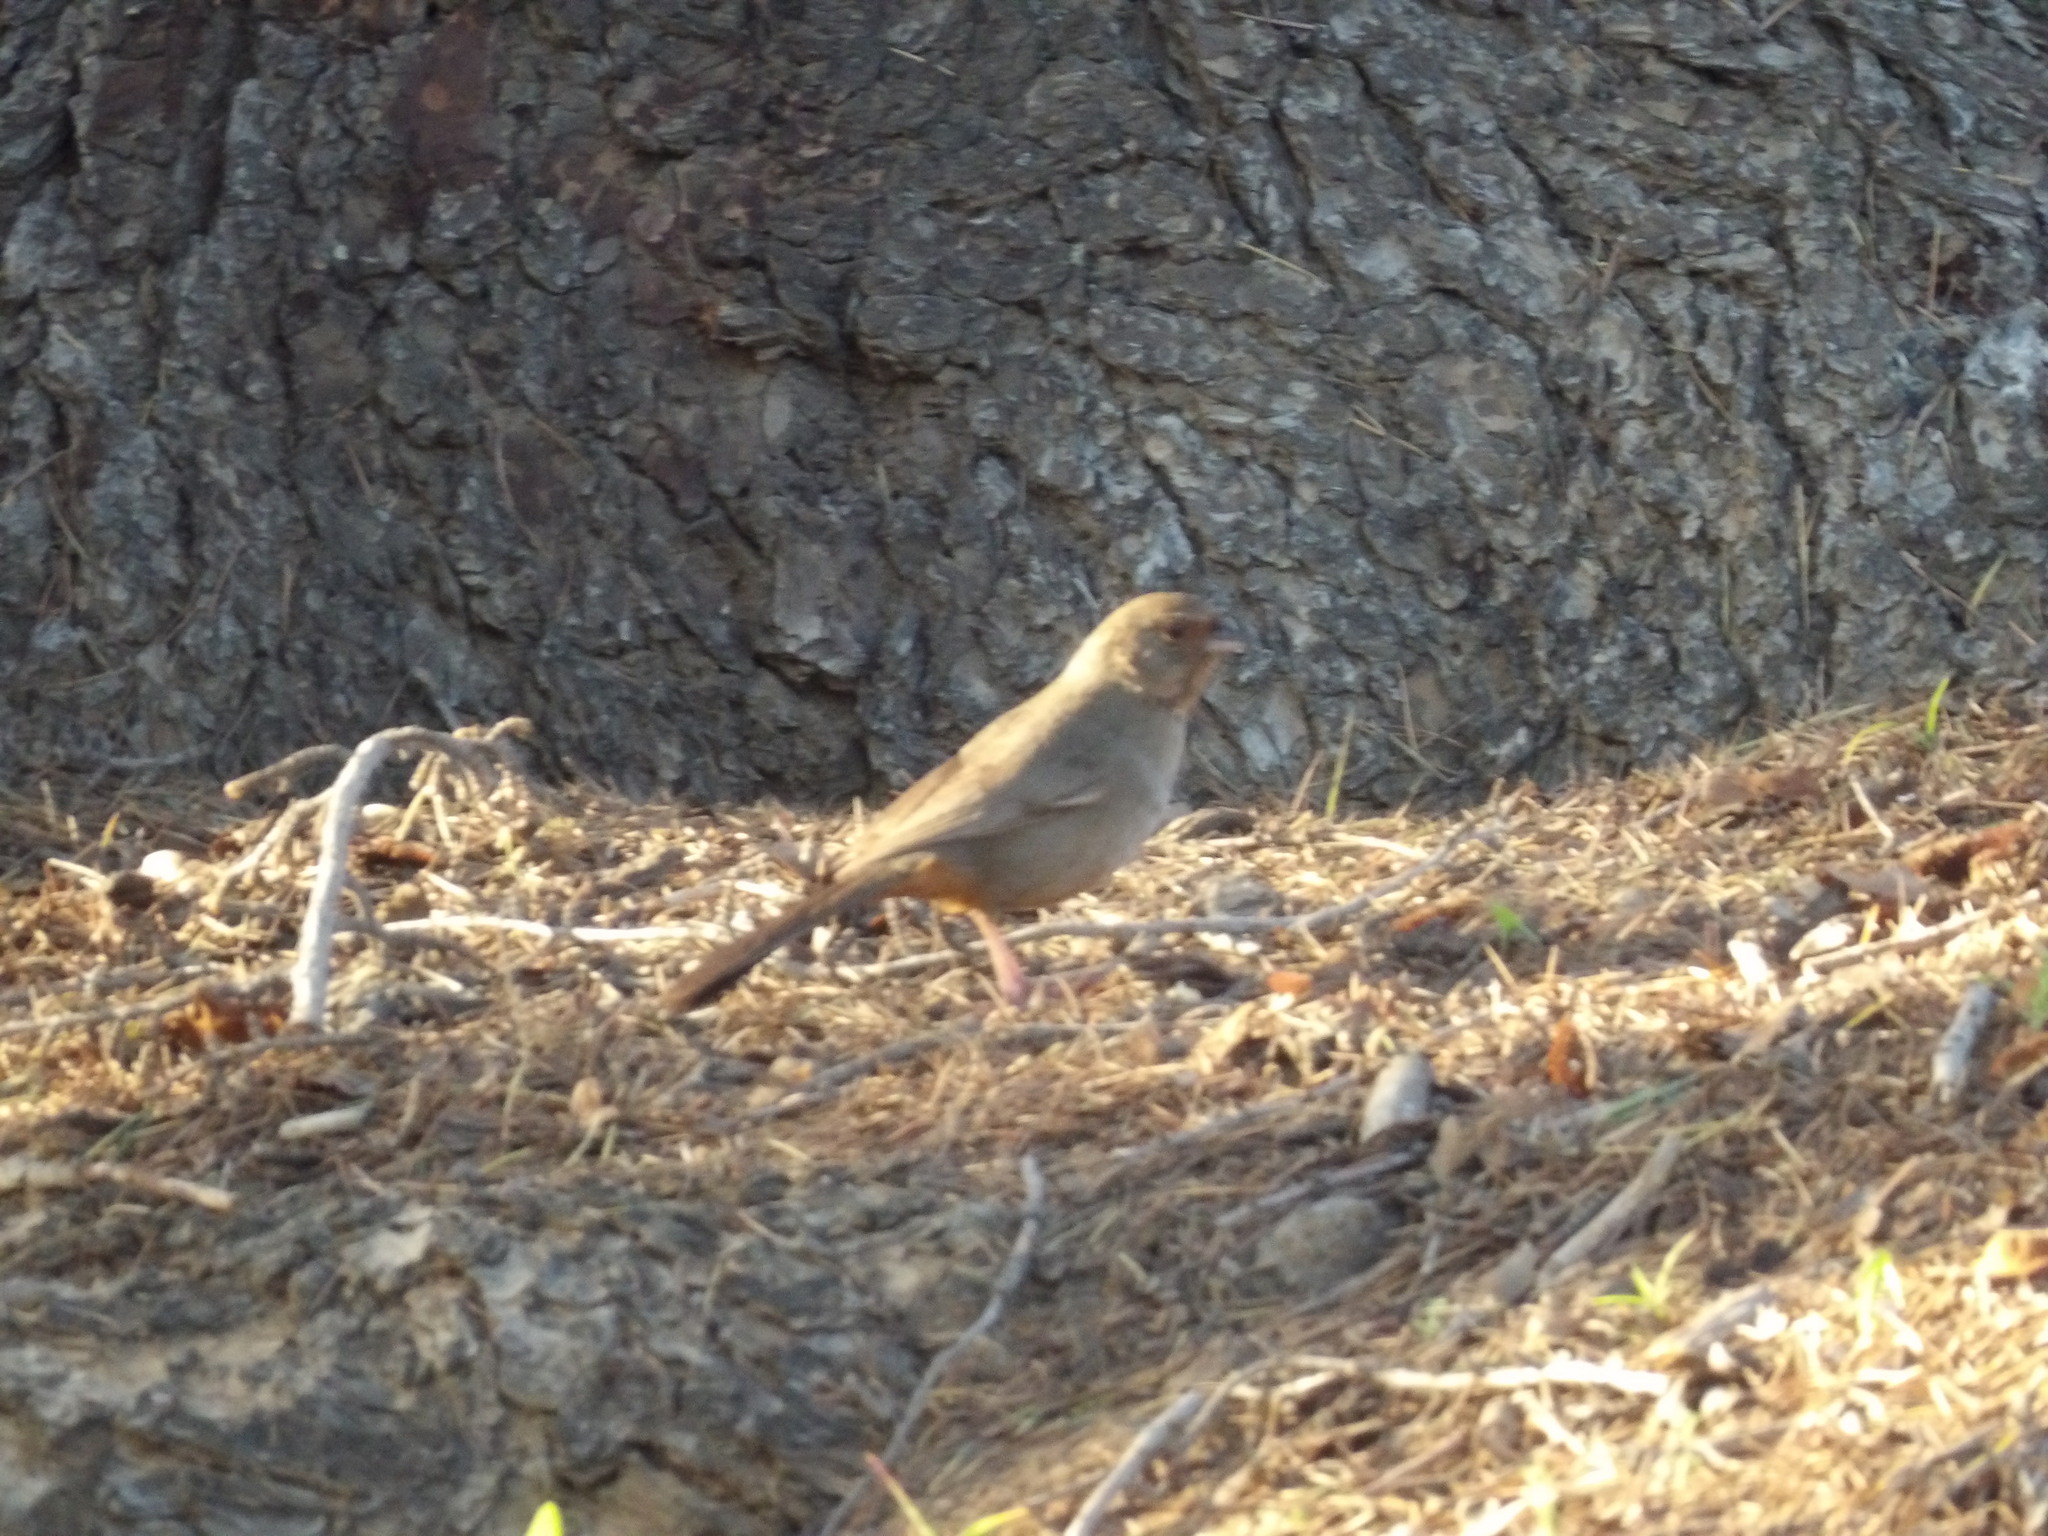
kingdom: Animalia
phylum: Chordata
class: Aves
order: Passeriformes
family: Passerellidae
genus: Melozone
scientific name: Melozone crissalis
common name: California towhee
